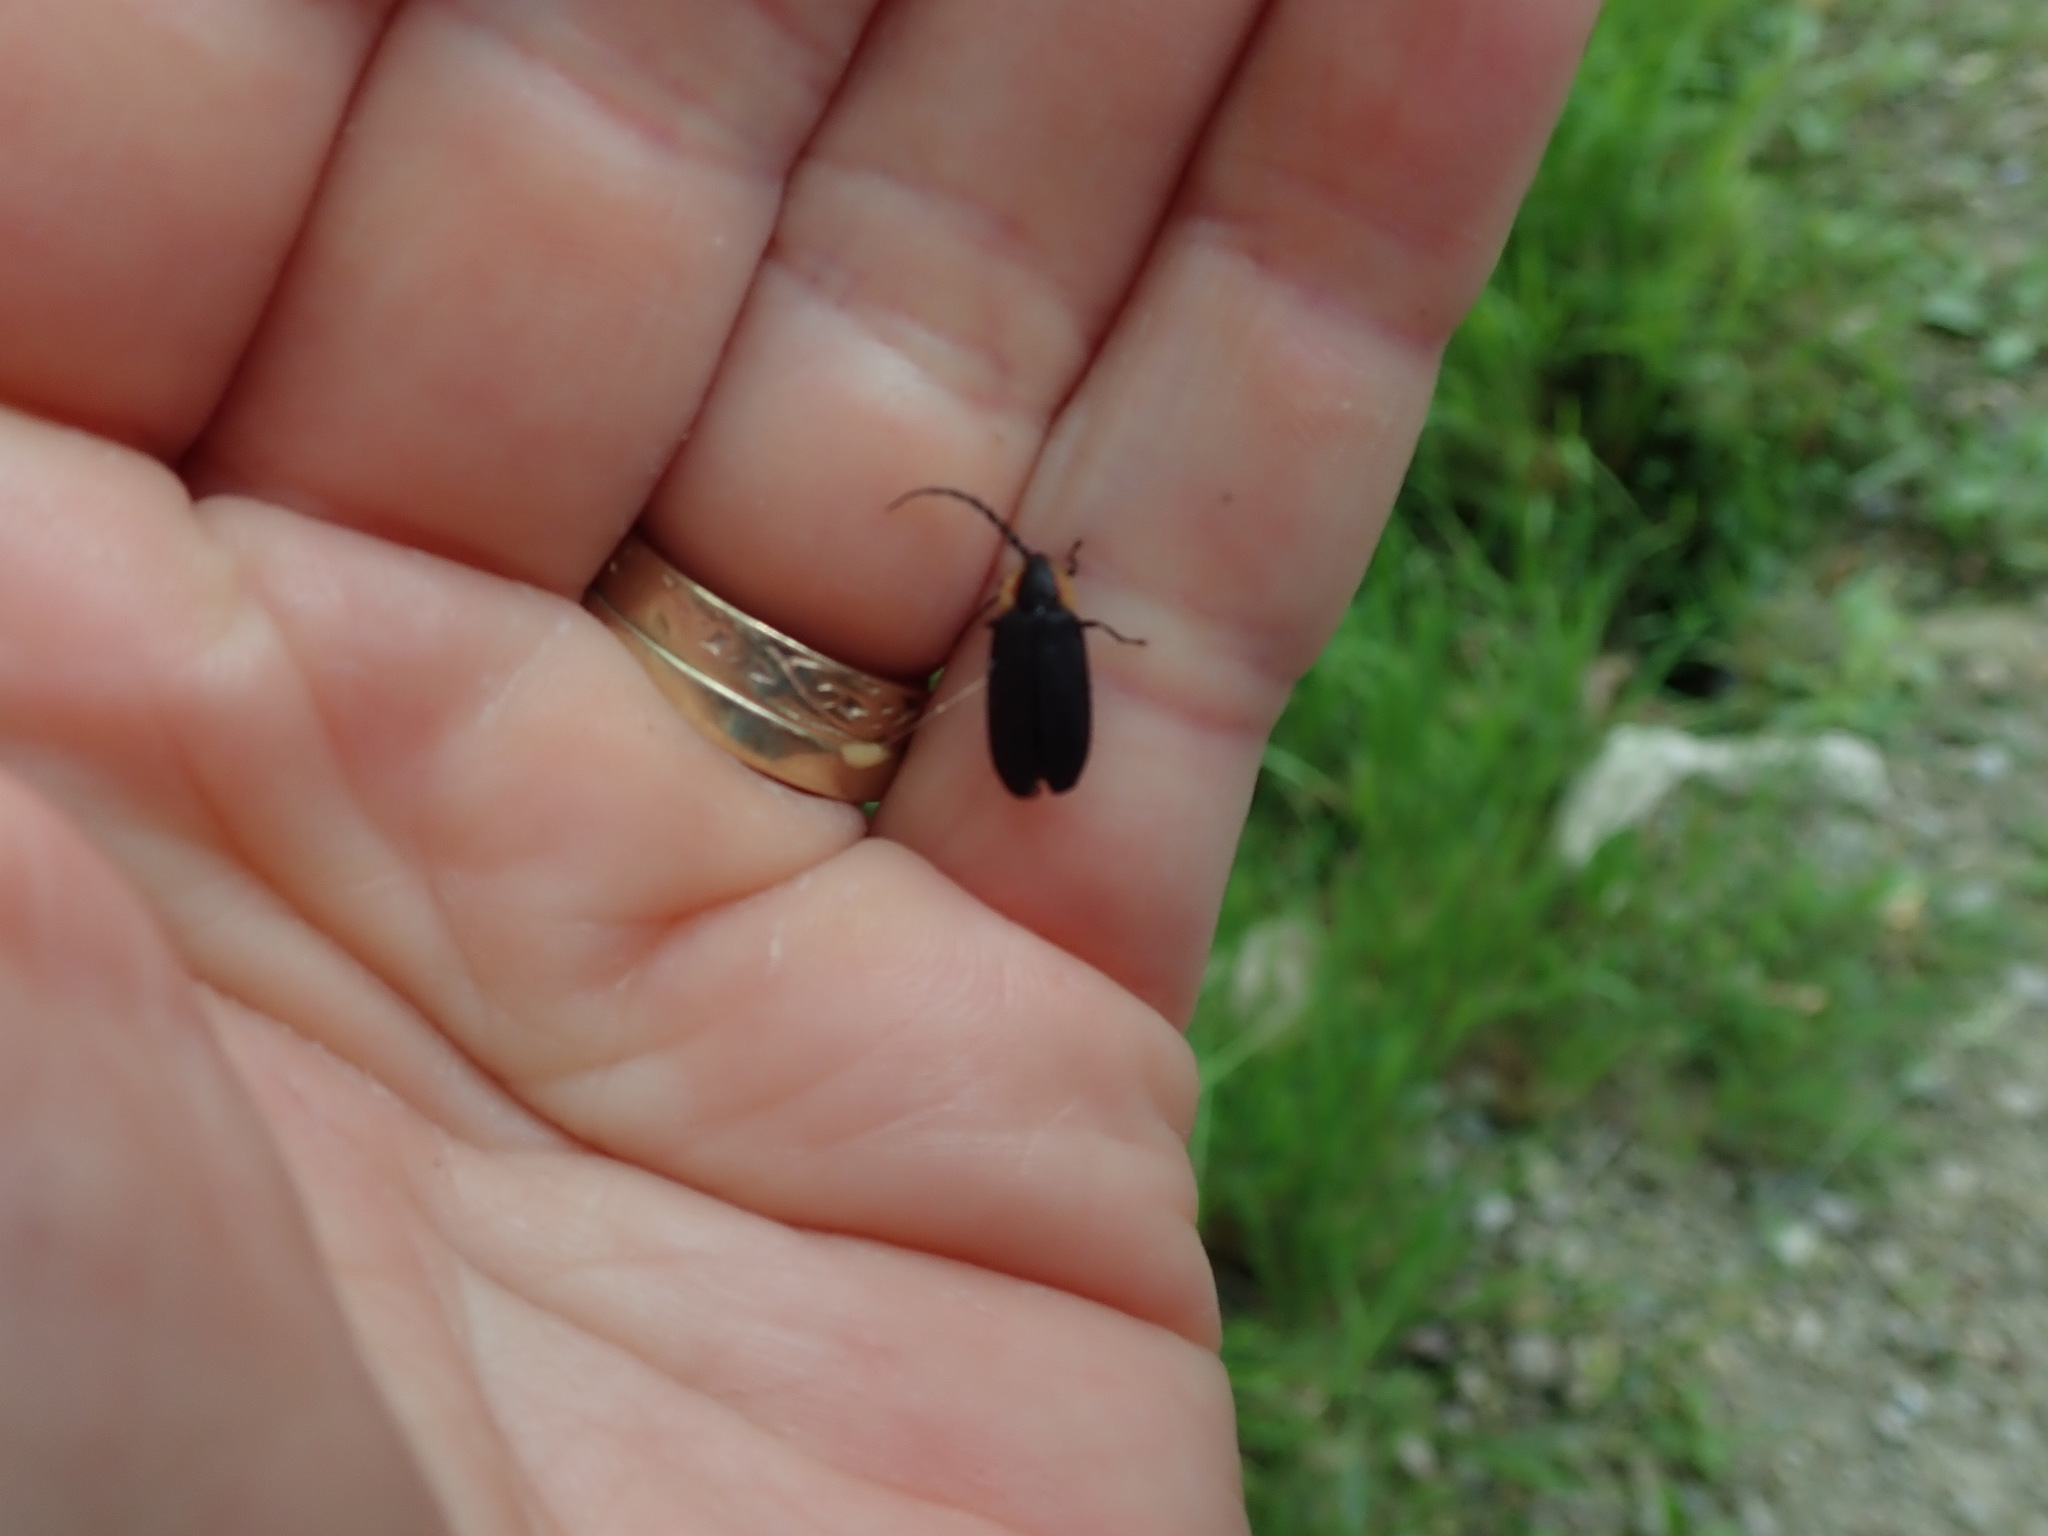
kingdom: Animalia
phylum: Arthropoda
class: Insecta
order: Coleoptera
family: Lampyridae
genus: Lucidota
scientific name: Lucidota atra
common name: Black firefly
